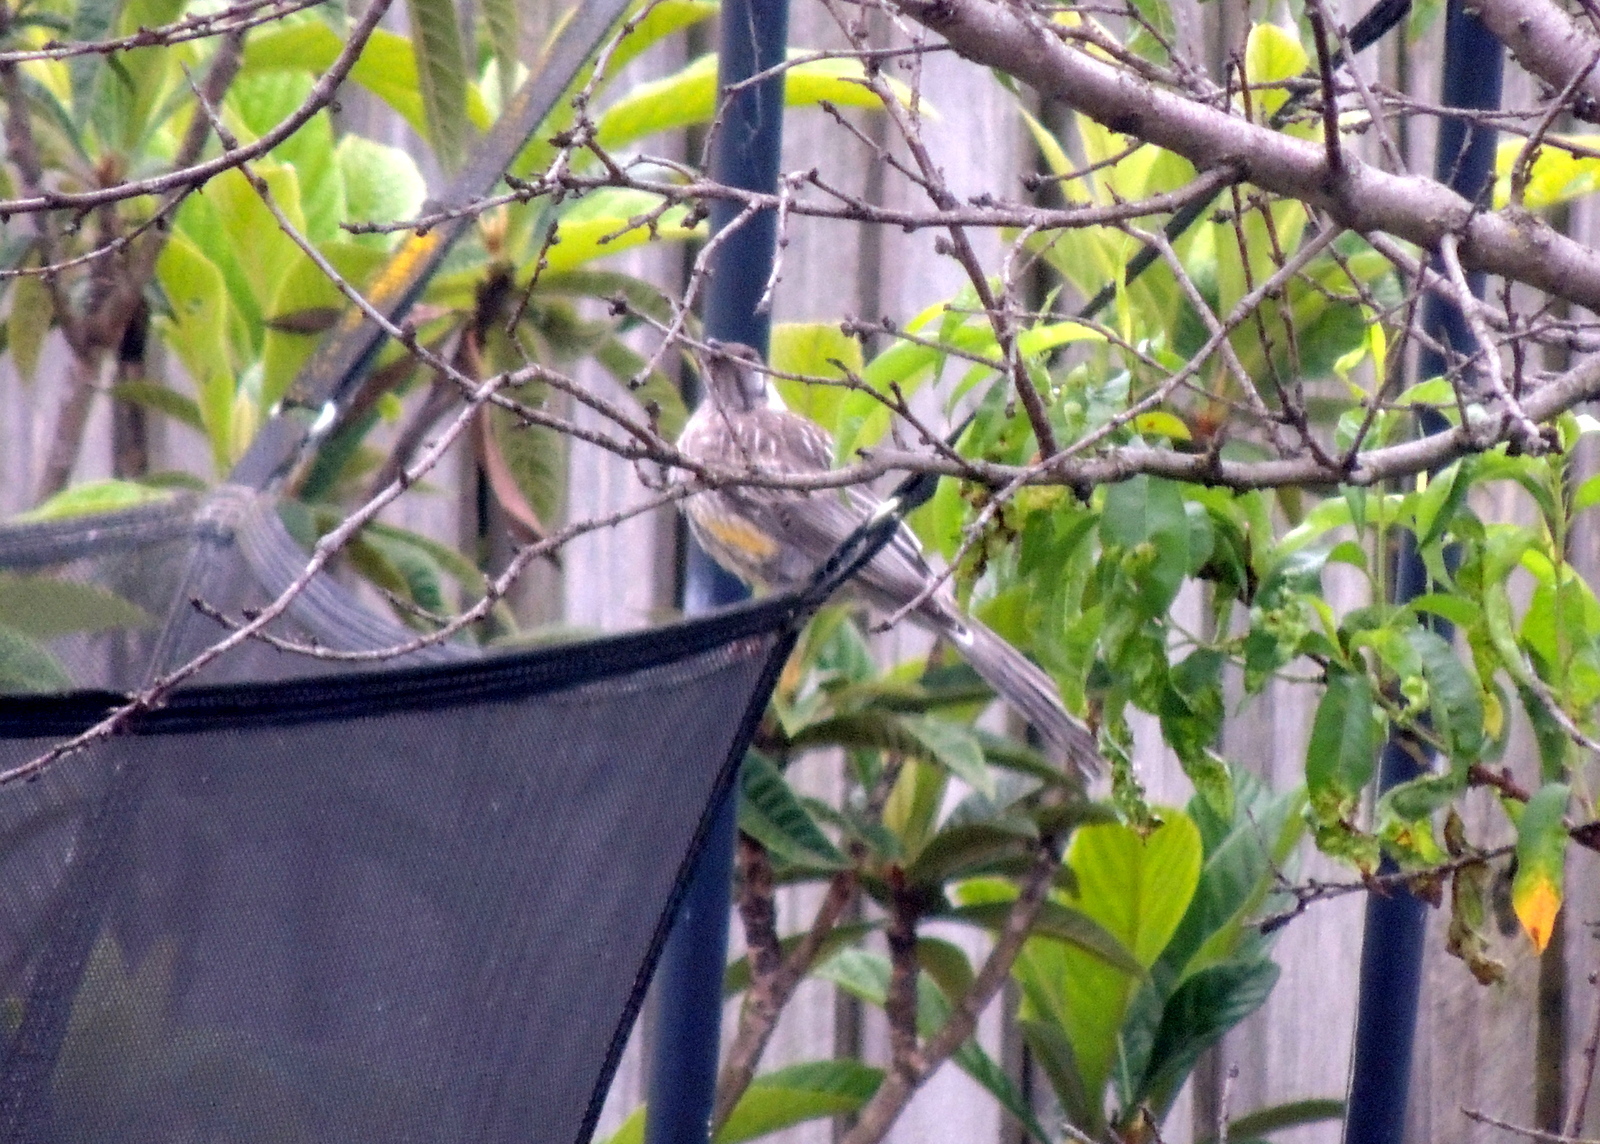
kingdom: Animalia
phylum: Chordata
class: Aves
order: Passeriformes
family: Meliphagidae
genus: Anthochaera
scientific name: Anthochaera carunculata
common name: Red wattlebird
